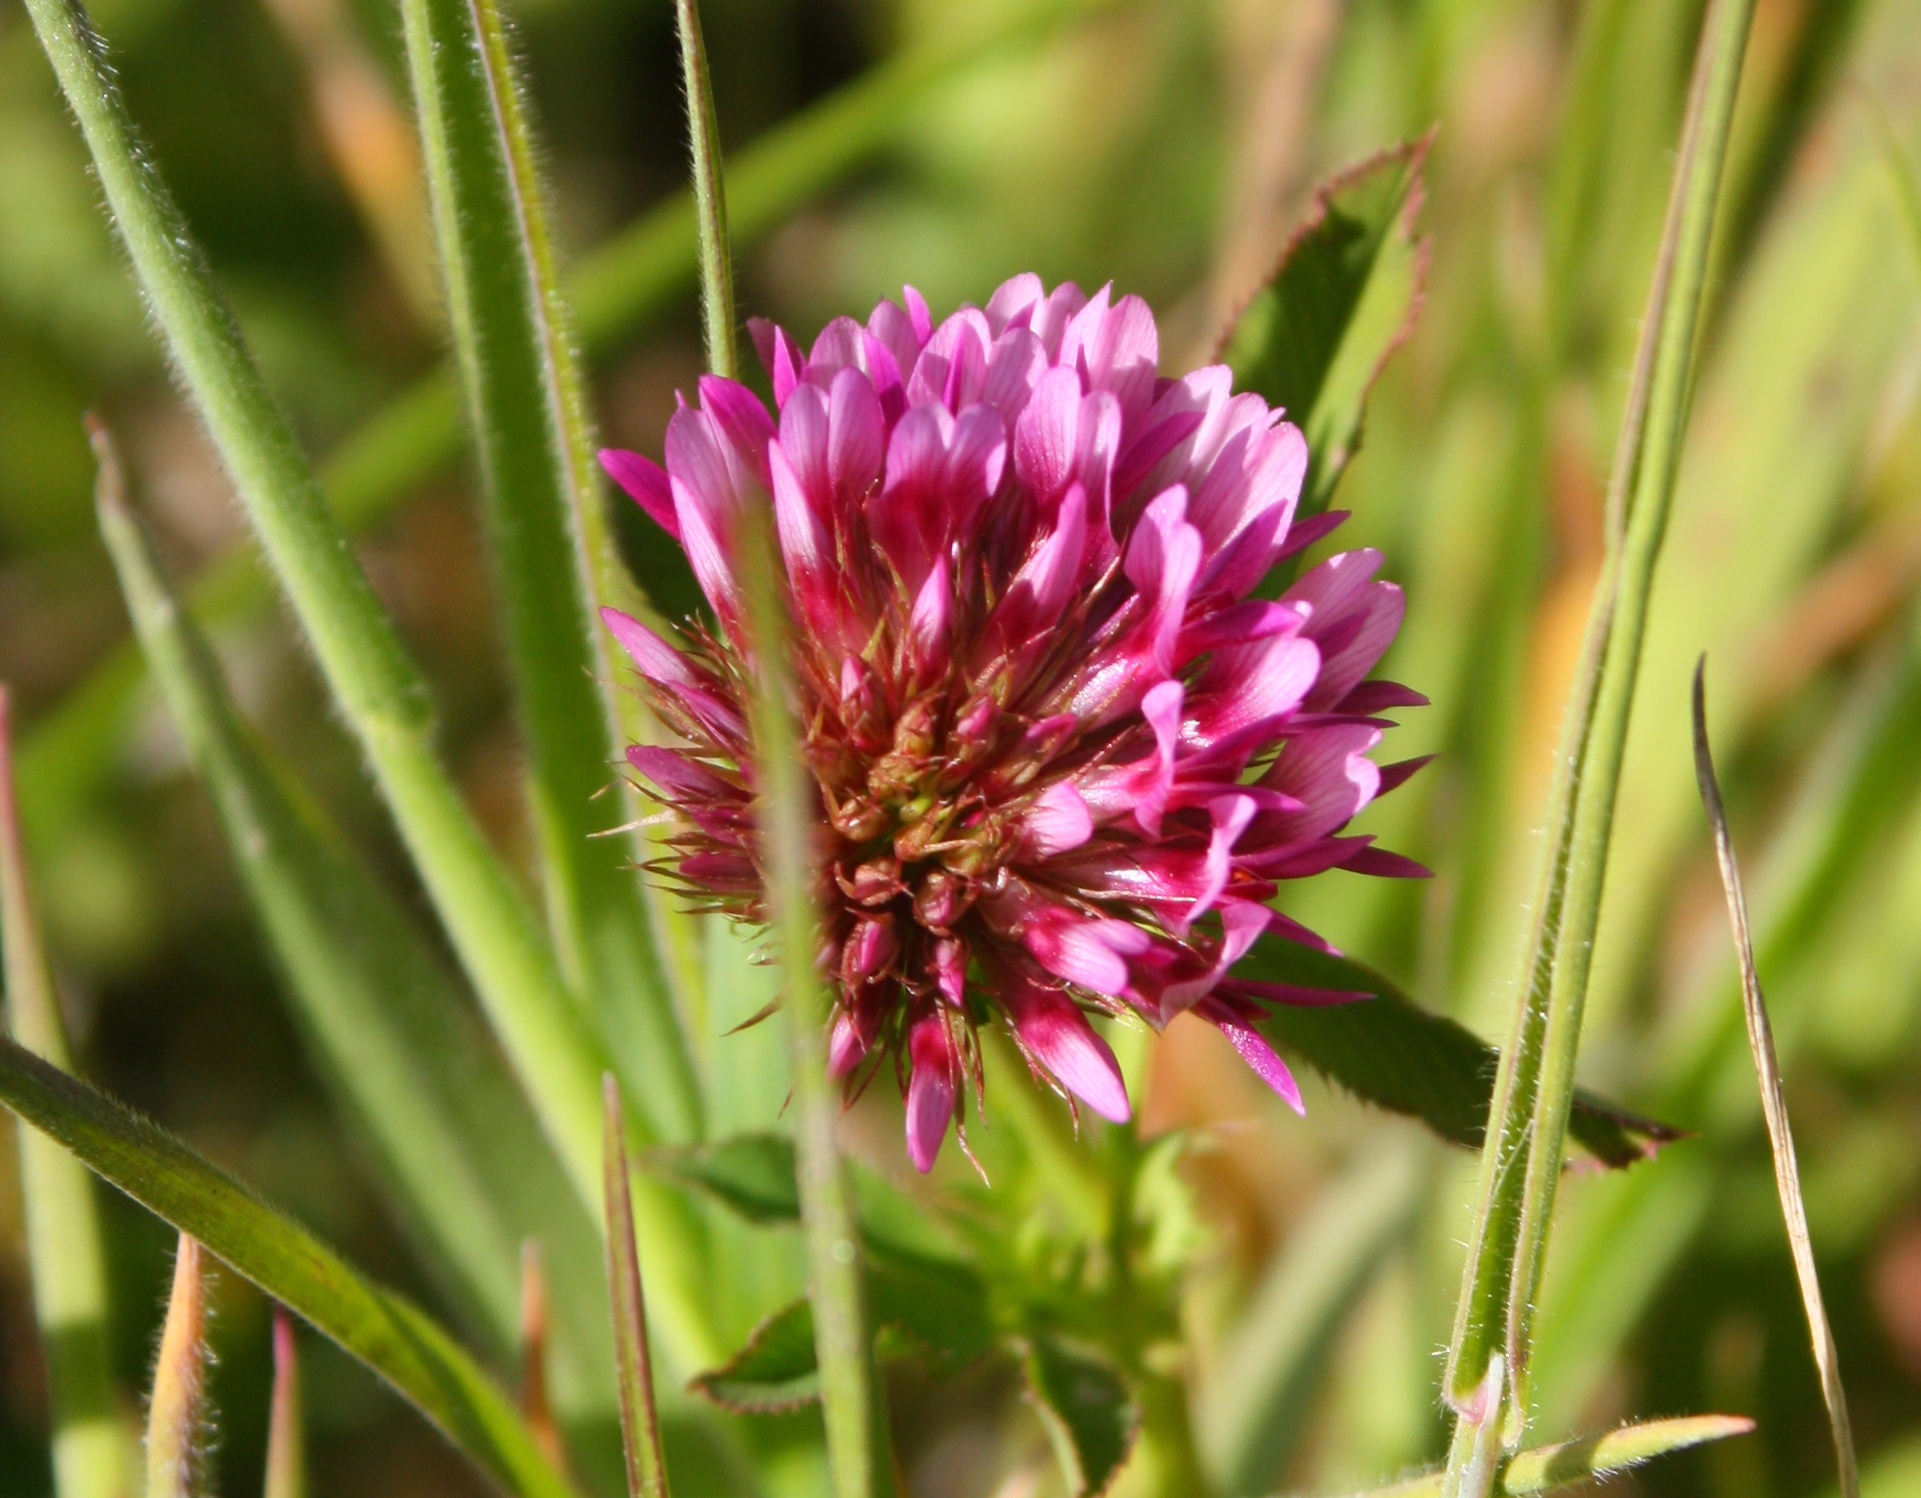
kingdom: Plantae
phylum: Tracheophyta
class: Magnoliopsida
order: Fabales
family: Fabaceae
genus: Trifolium
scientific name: Trifolium wormskioldii
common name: Springbank clover
